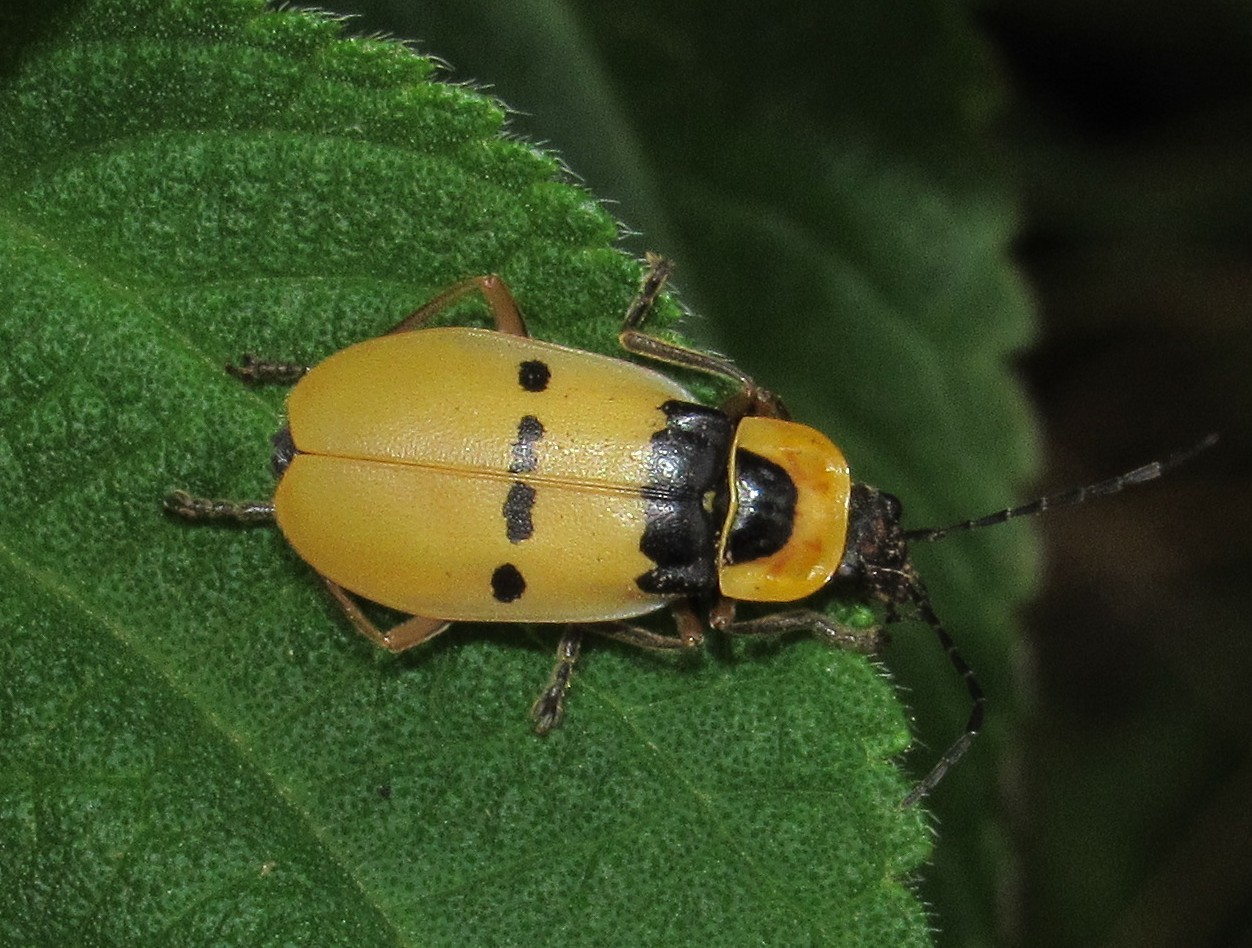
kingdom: Animalia
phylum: Arthropoda
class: Insecta
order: Coleoptera
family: Cantharidae
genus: Chauliognathus
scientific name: Chauliognathus
